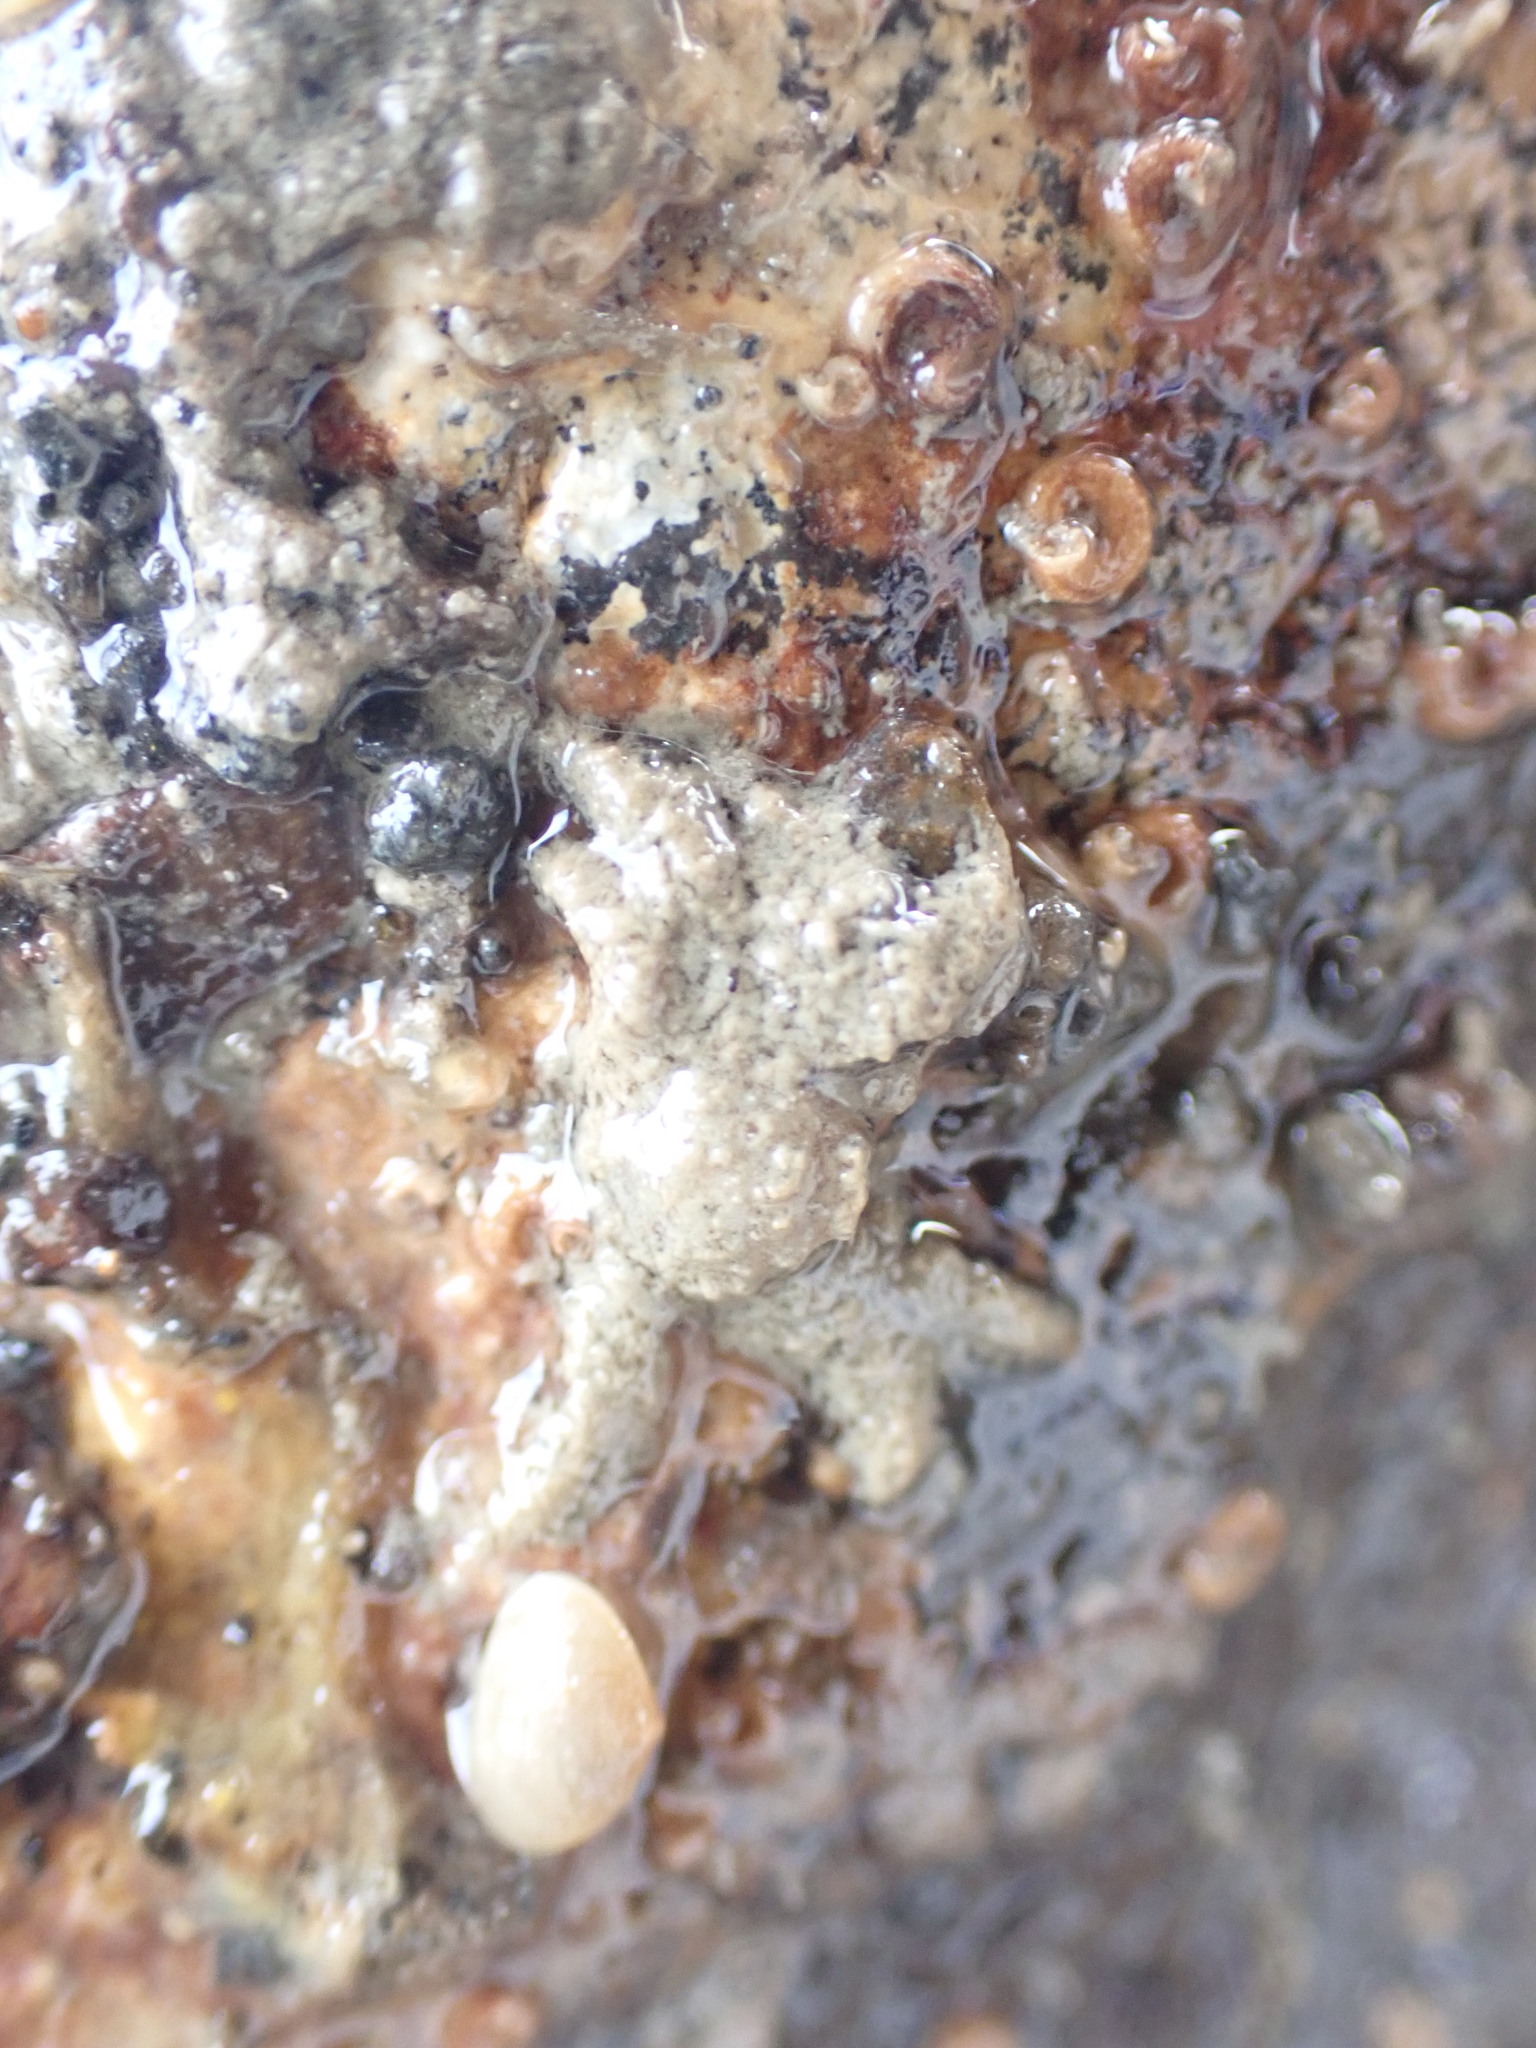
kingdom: Animalia
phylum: Arthropoda
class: Malacostraca
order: Decapoda
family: Hymenosomatidae
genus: Neohymenicus
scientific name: Neohymenicus pubescens
